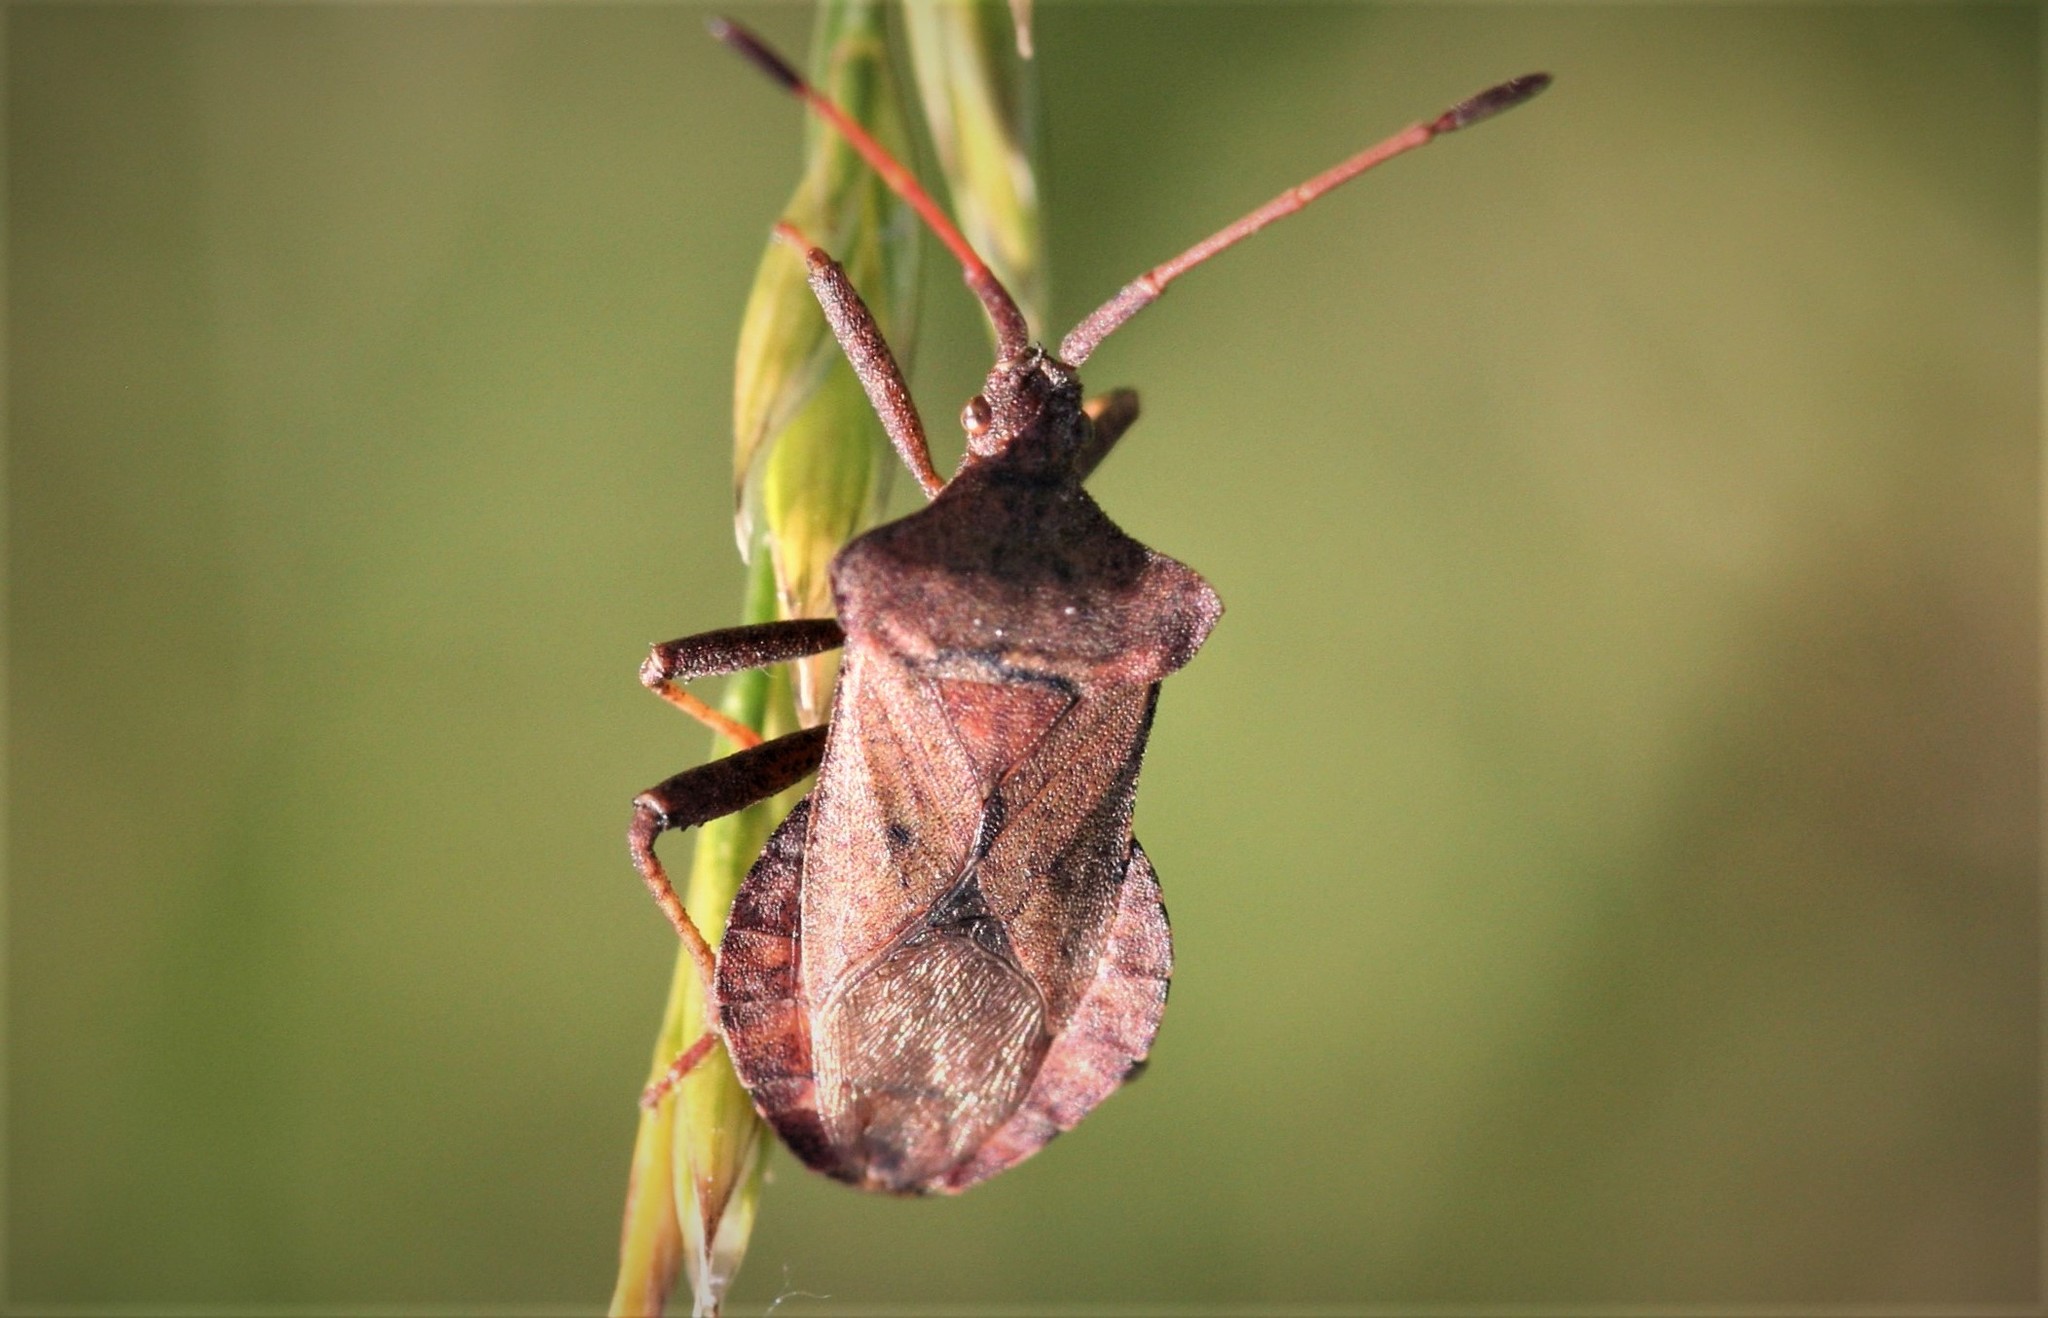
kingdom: Animalia
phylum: Arthropoda
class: Insecta
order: Hemiptera
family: Coreidae
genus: Coreus
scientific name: Coreus marginatus
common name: Dock bug
